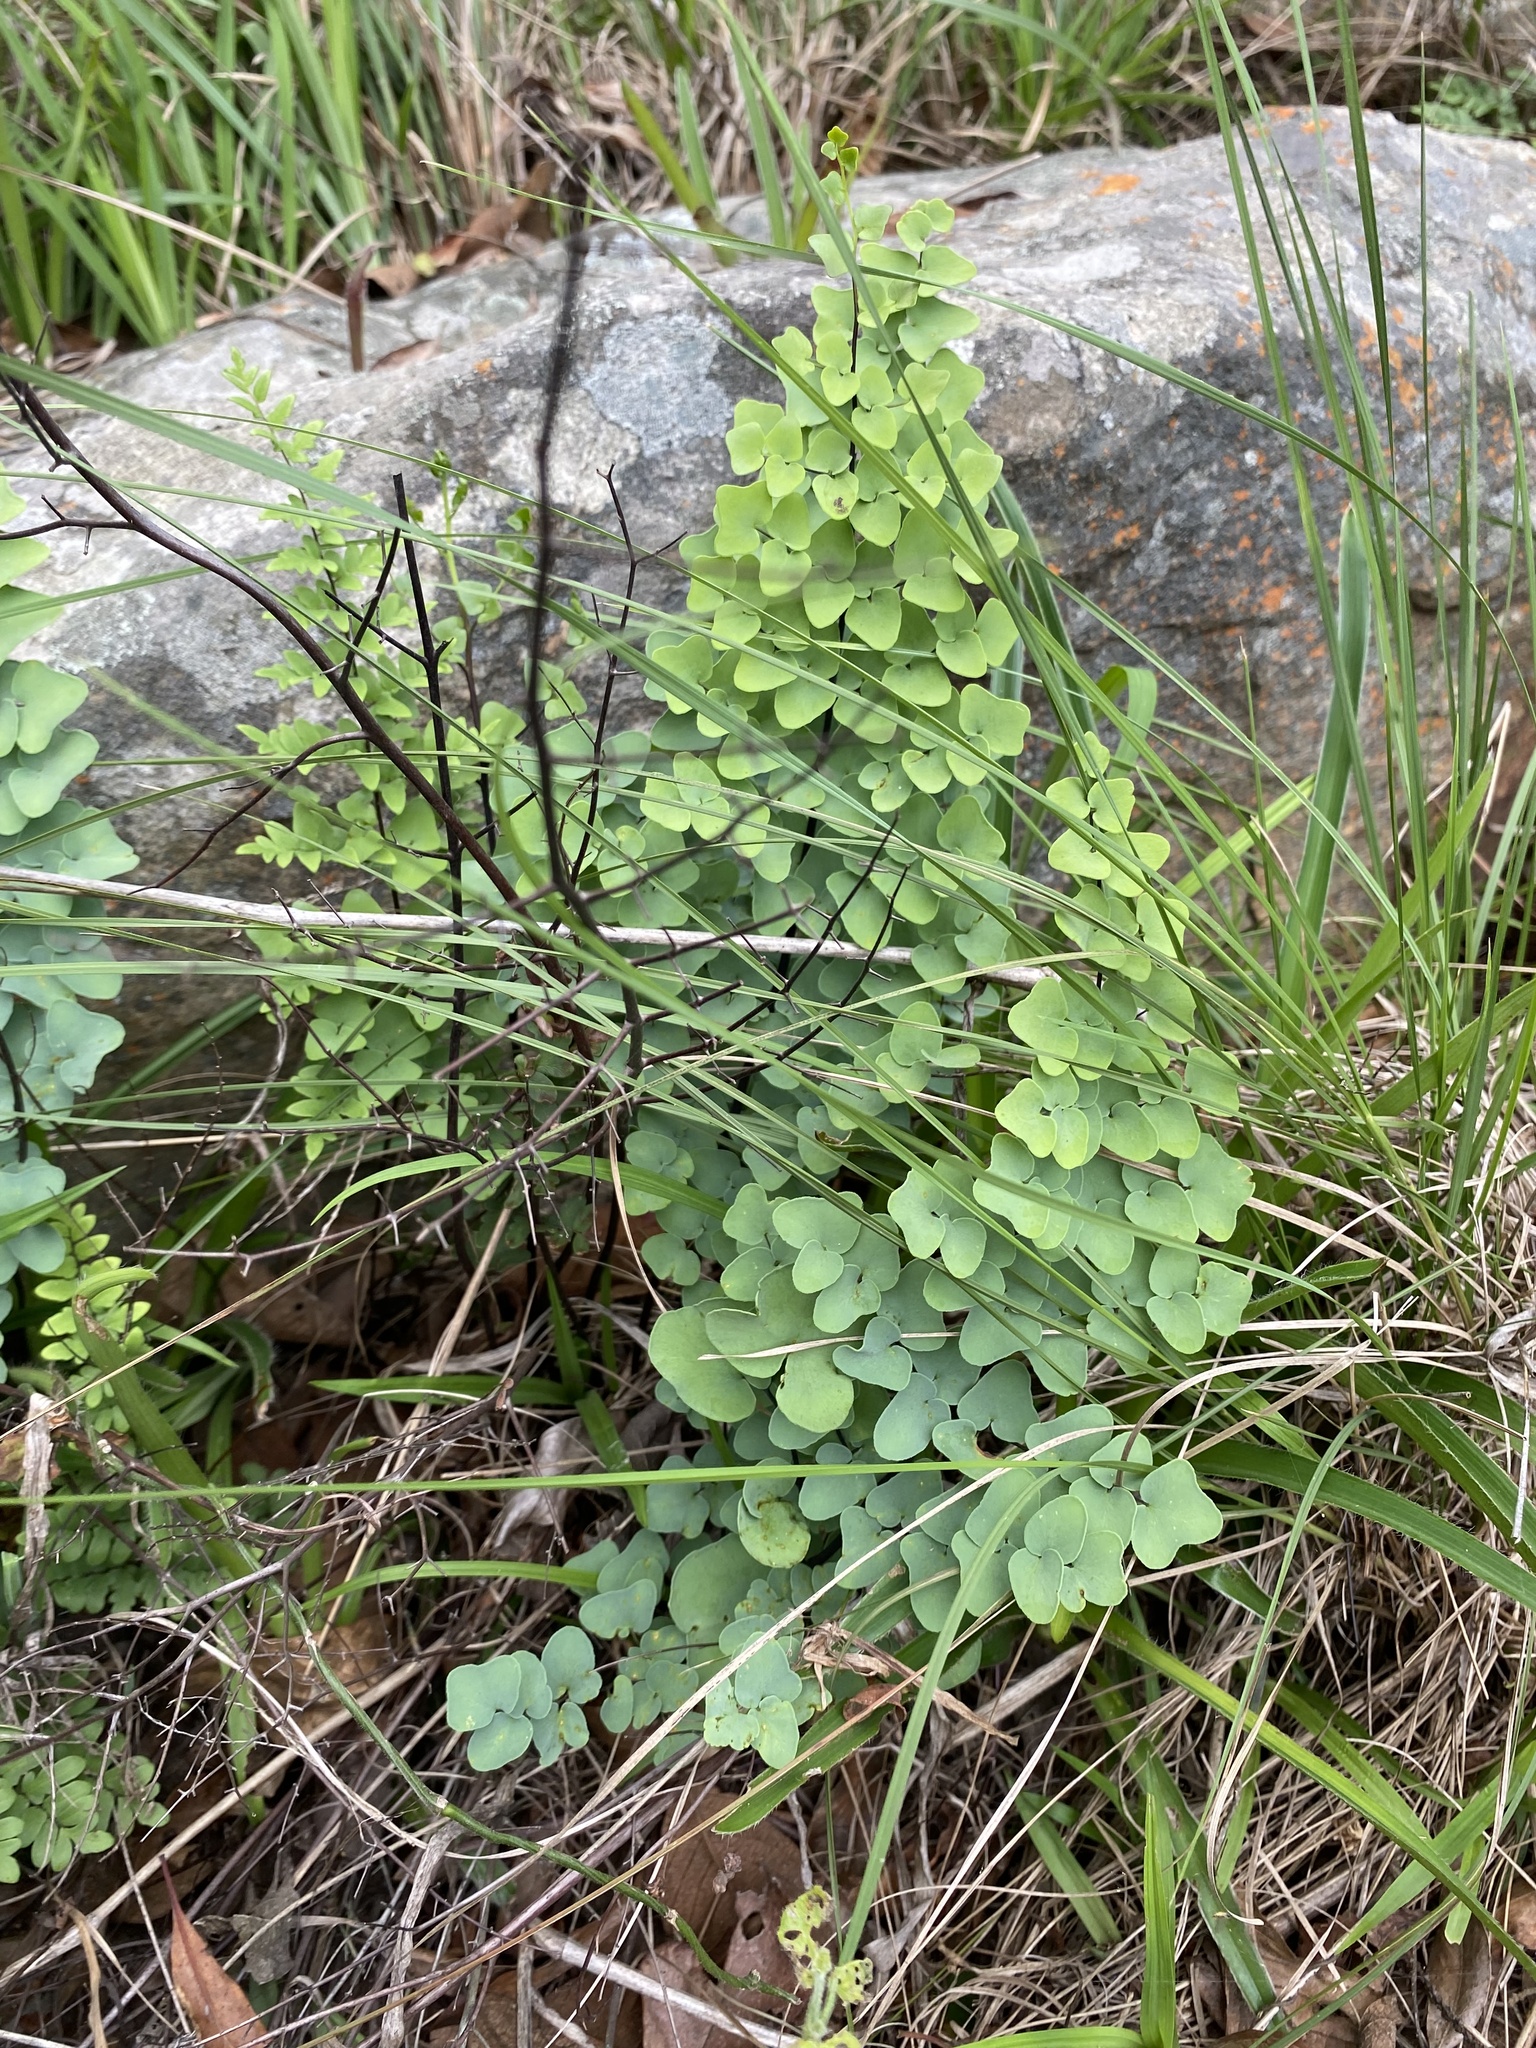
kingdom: Plantae
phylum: Tracheophyta
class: Polypodiopsida
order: Polypodiales
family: Pteridaceae
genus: Pellaea
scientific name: Pellaea calomelanos
